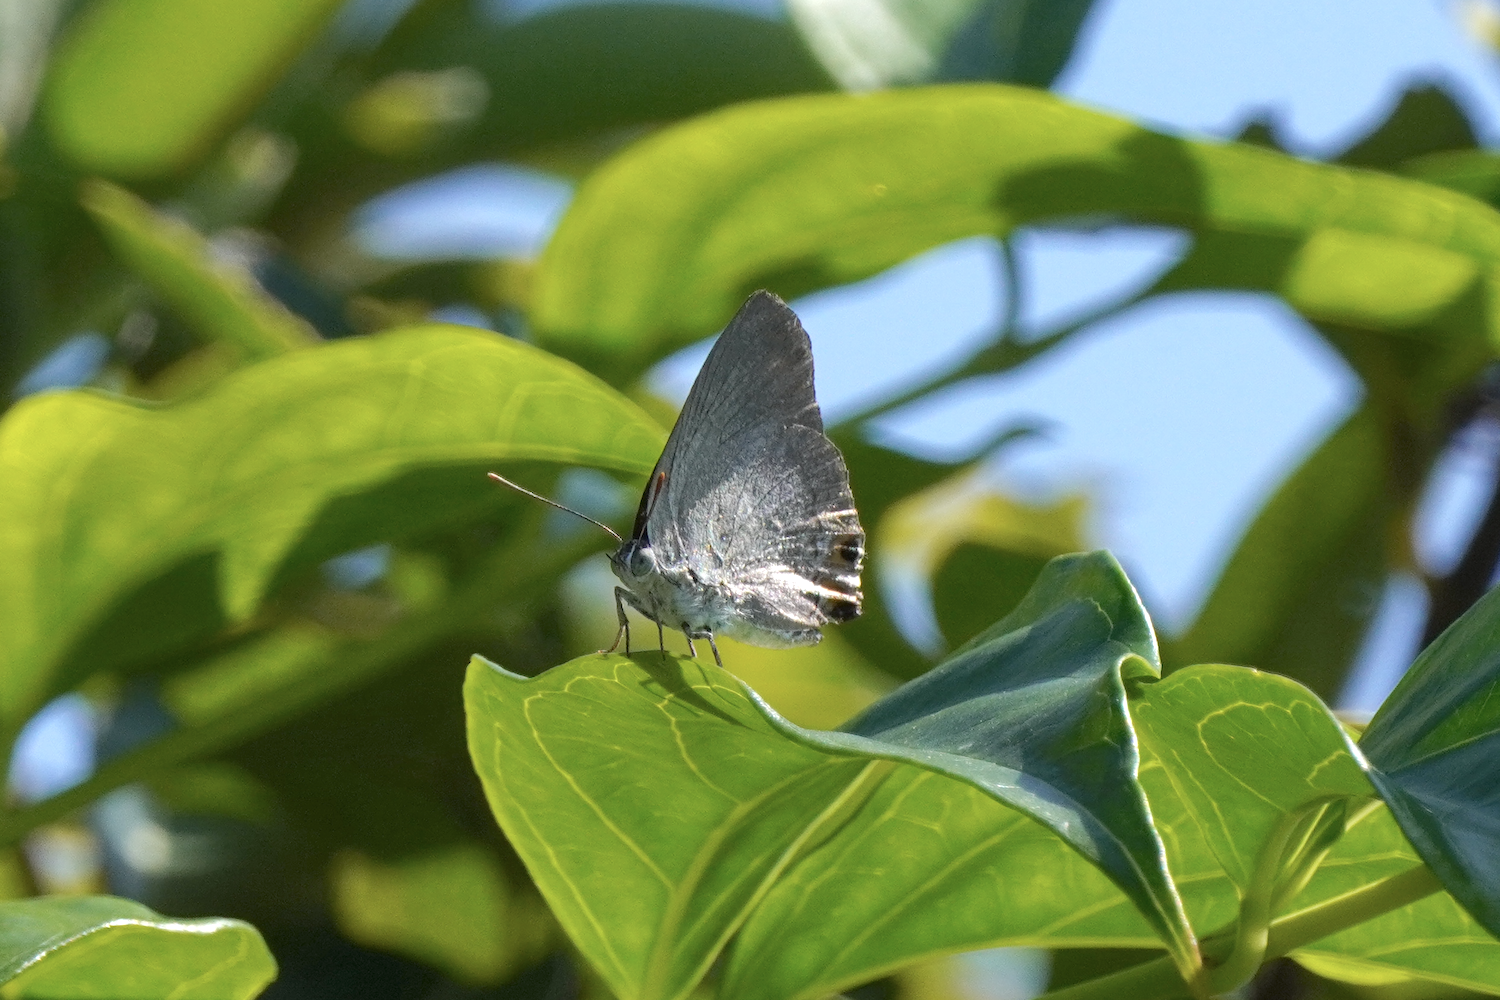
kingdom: Animalia
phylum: Arthropoda
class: Insecta
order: Lepidoptera
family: Lycaenidae
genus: Ancema
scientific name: Ancema blanka
